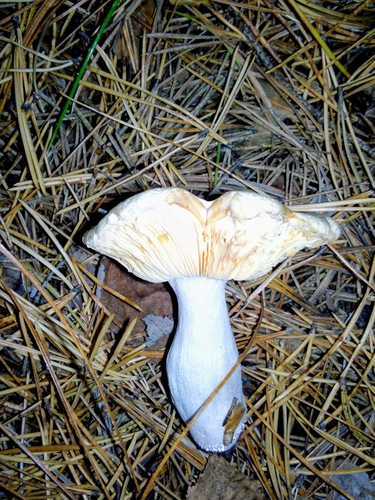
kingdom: Fungi
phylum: Basidiomycota
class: Agaricomycetes
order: Russulales
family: Russulaceae
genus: Russula
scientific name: Russula
